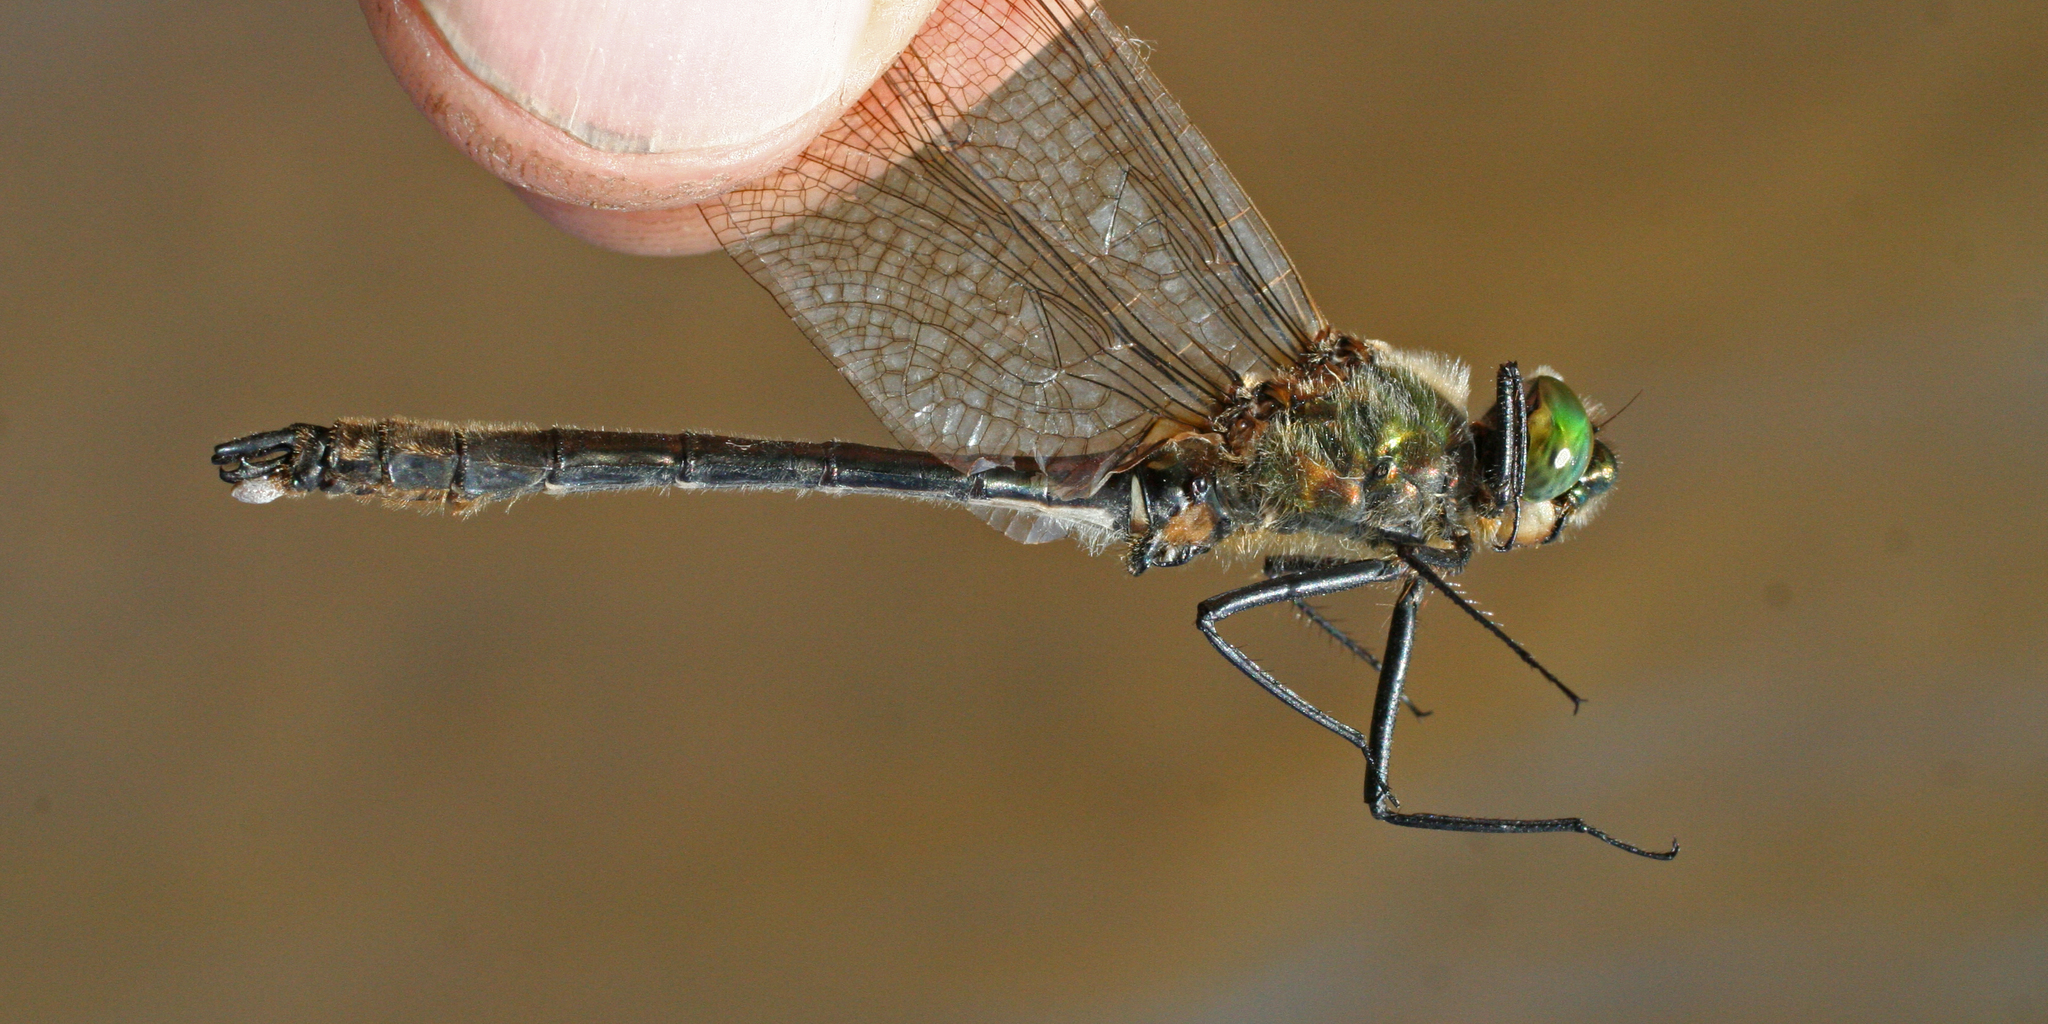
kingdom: Animalia
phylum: Arthropoda
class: Insecta
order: Odonata
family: Corduliidae
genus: Cordulia
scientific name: Cordulia aenea
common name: Downy emerald
